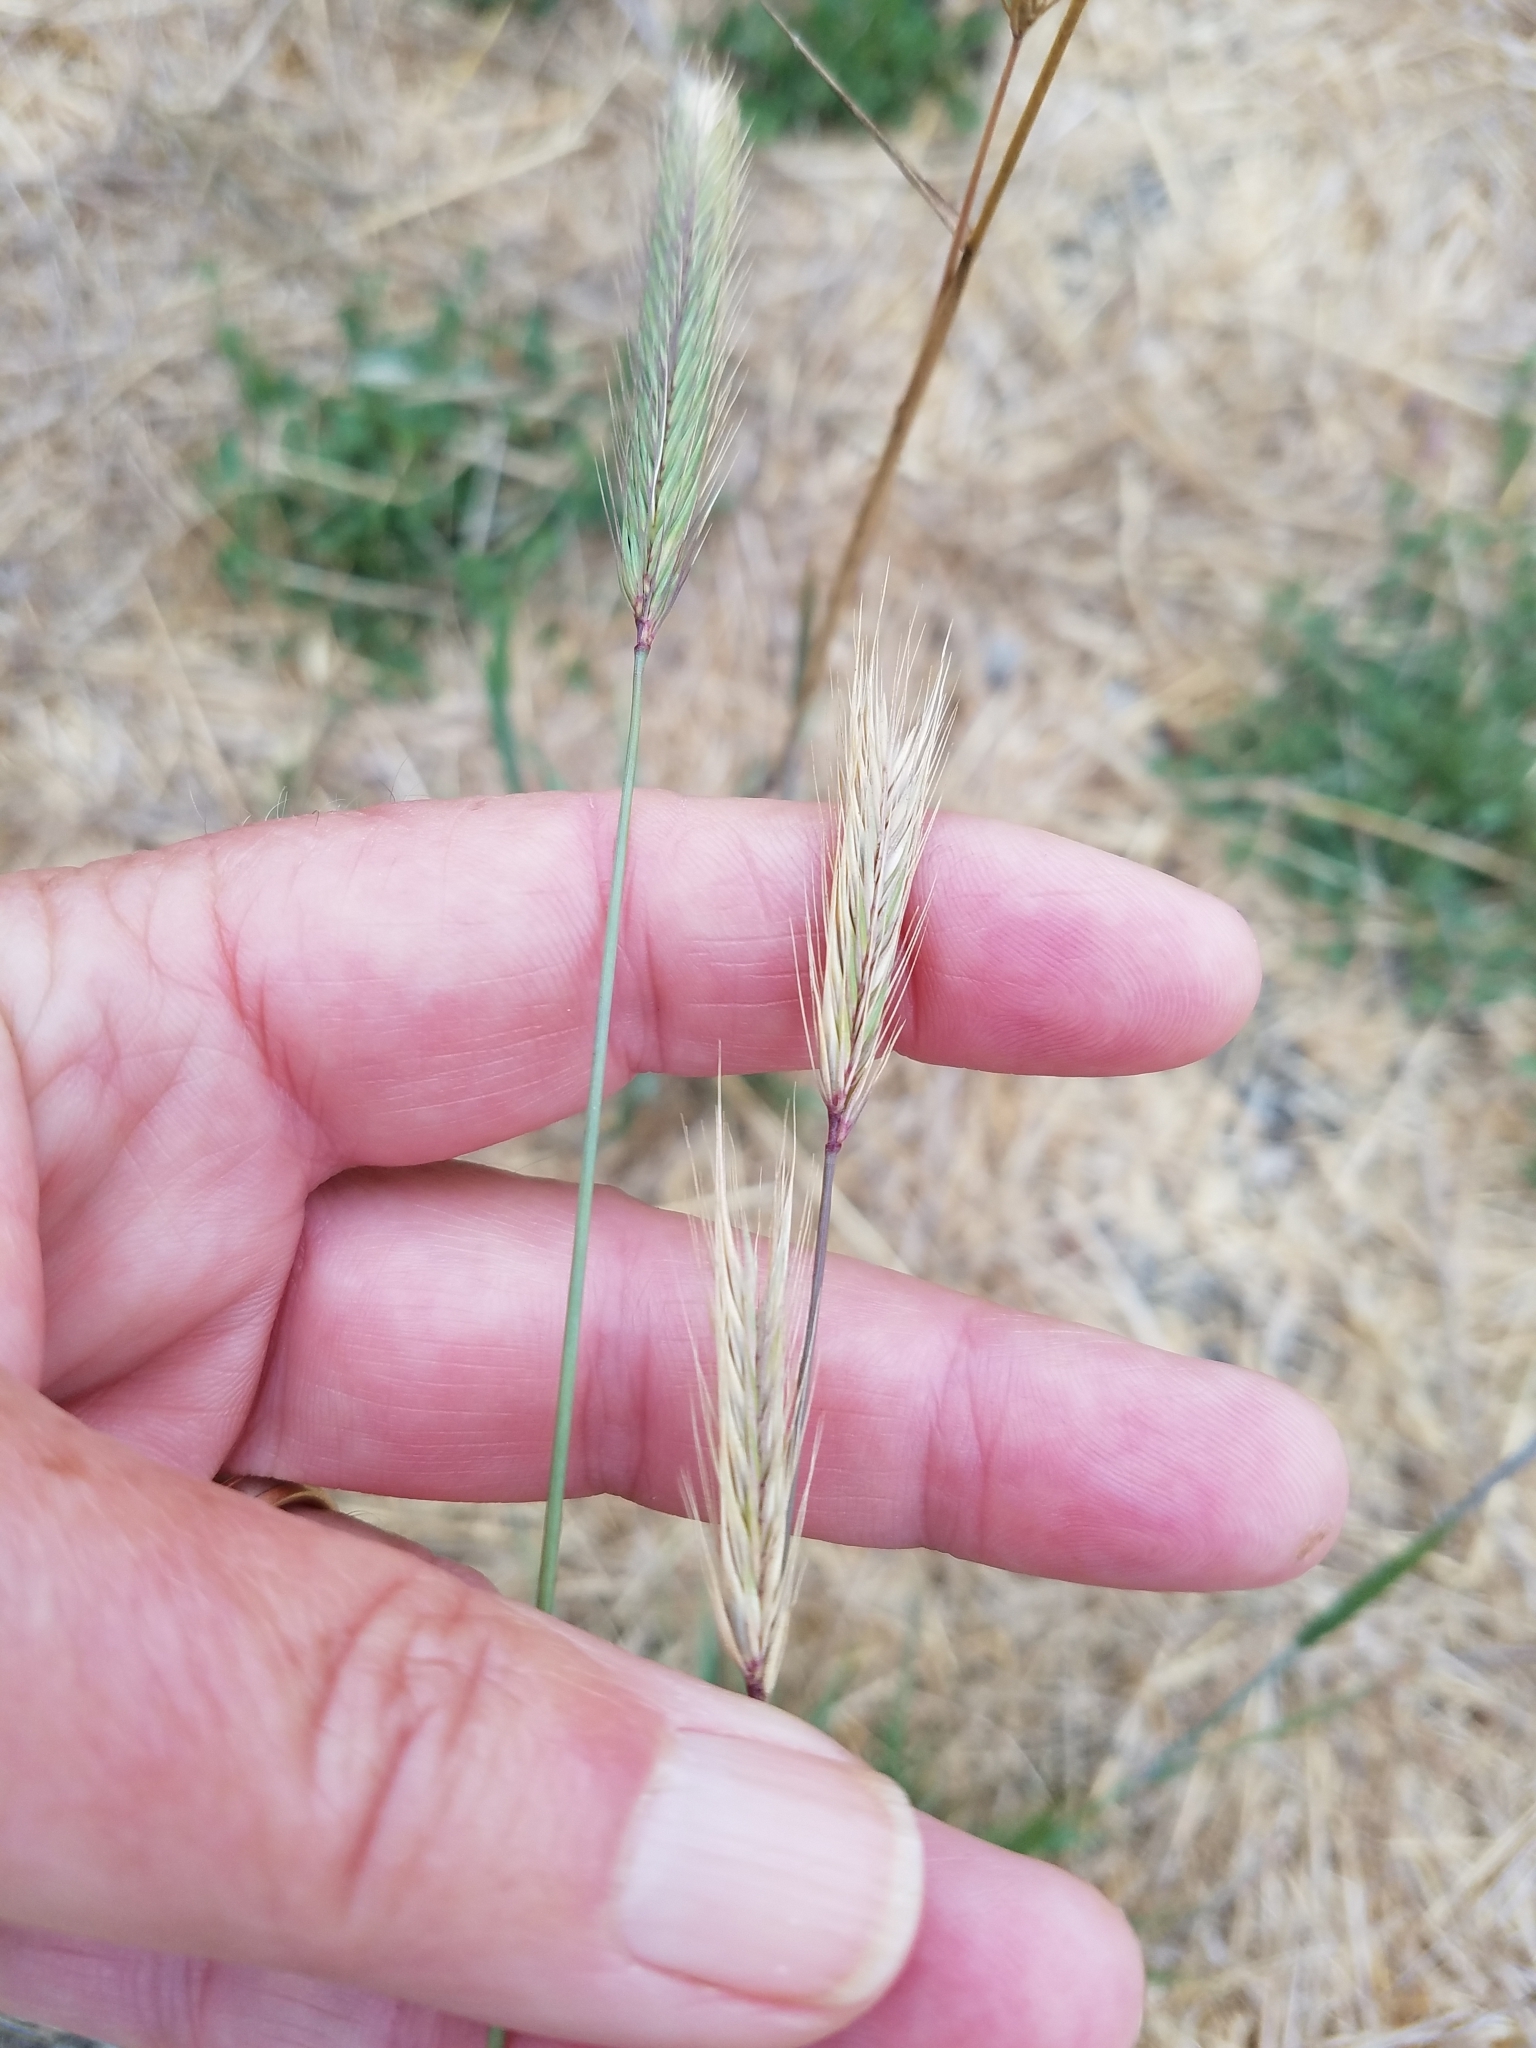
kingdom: Plantae
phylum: Tracheophyta
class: Liliopsida
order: Poales
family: Poaceae
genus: Hordeum
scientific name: Hordeum brachyantherum
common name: Meadow barley
